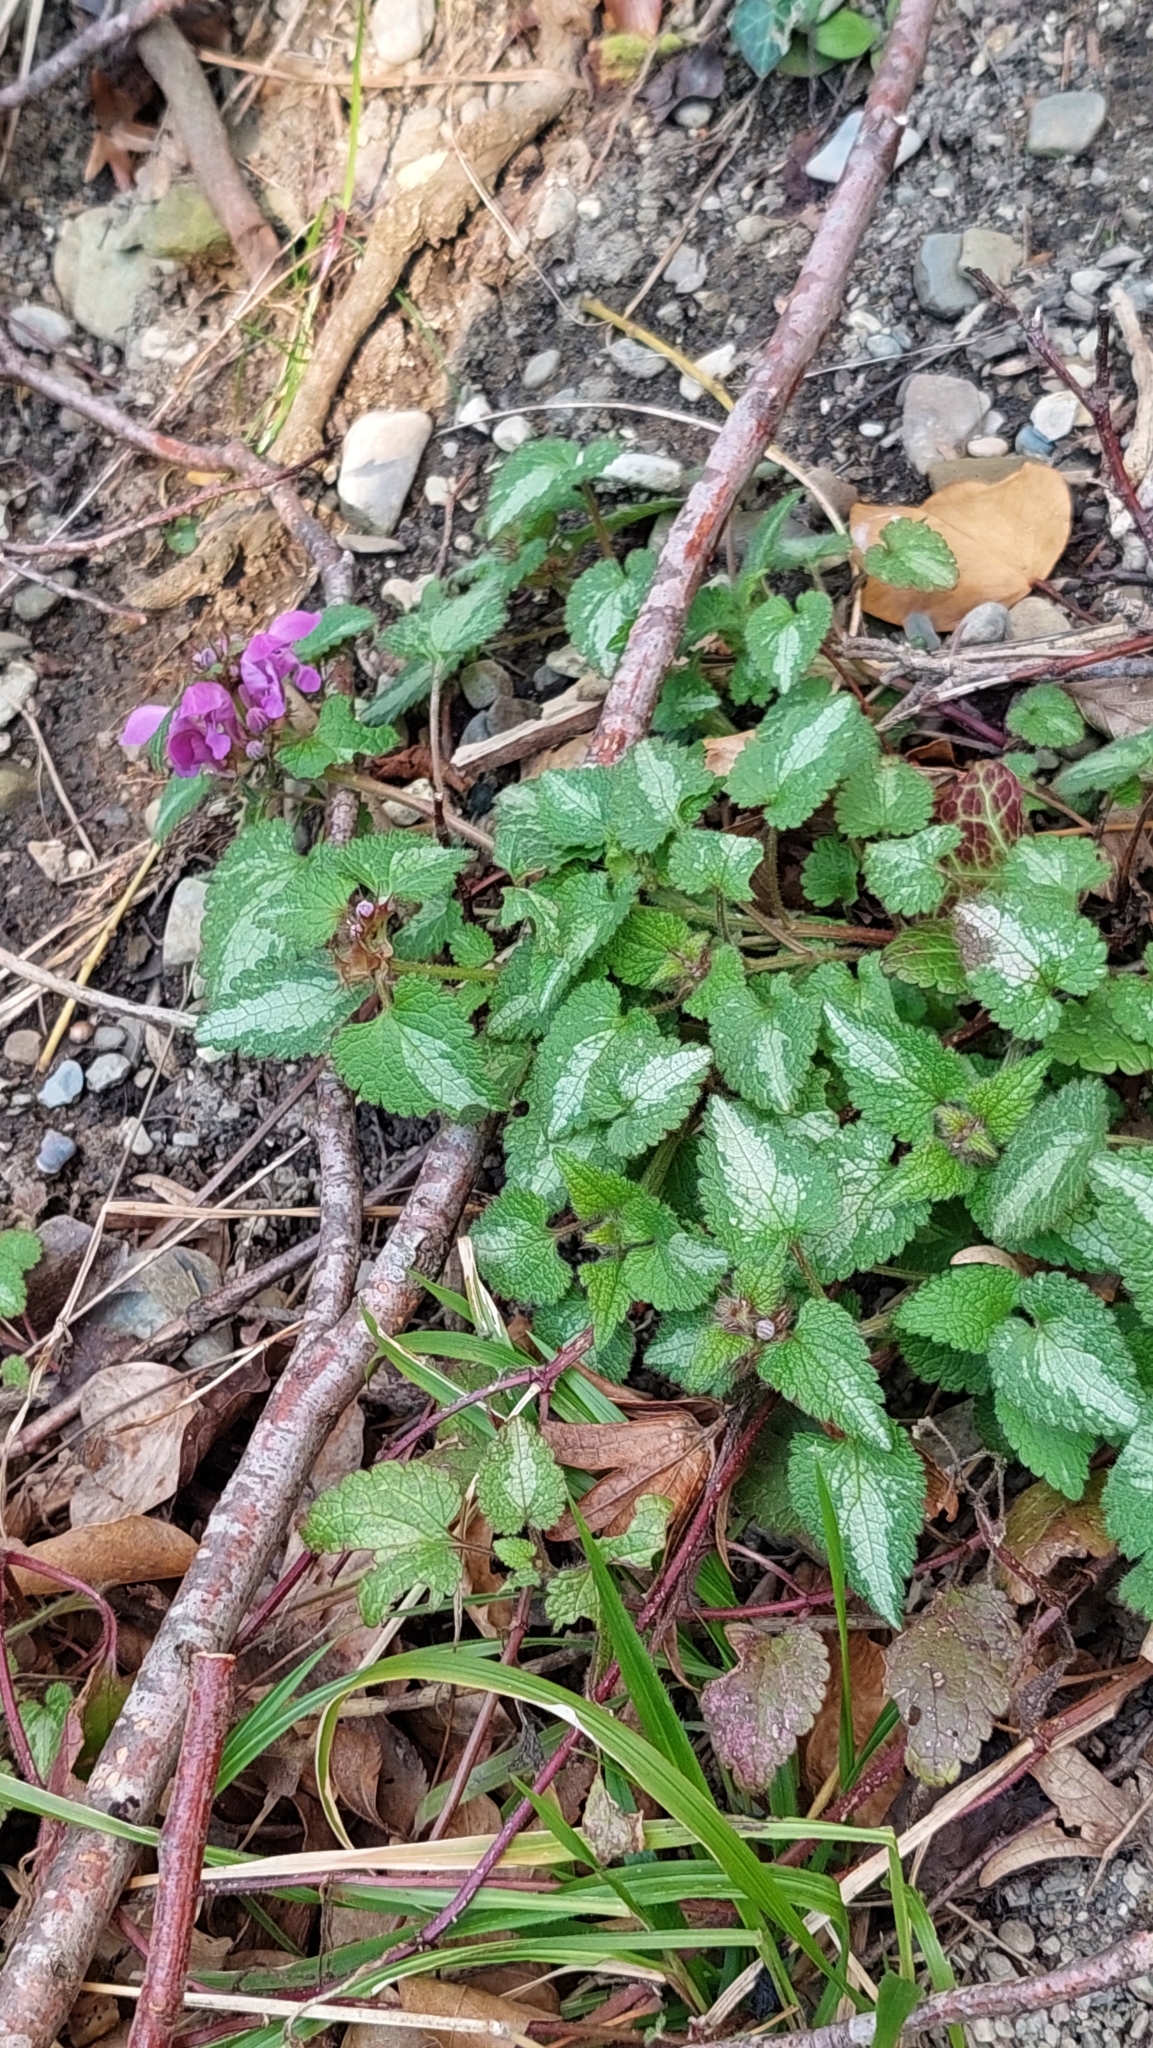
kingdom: Plantae
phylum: Tracheophyta
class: Magnoliopsida
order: Lamiales
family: Lamiaceae
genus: Lamium
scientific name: Lamium maculatum
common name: Spotted dead-nettle
